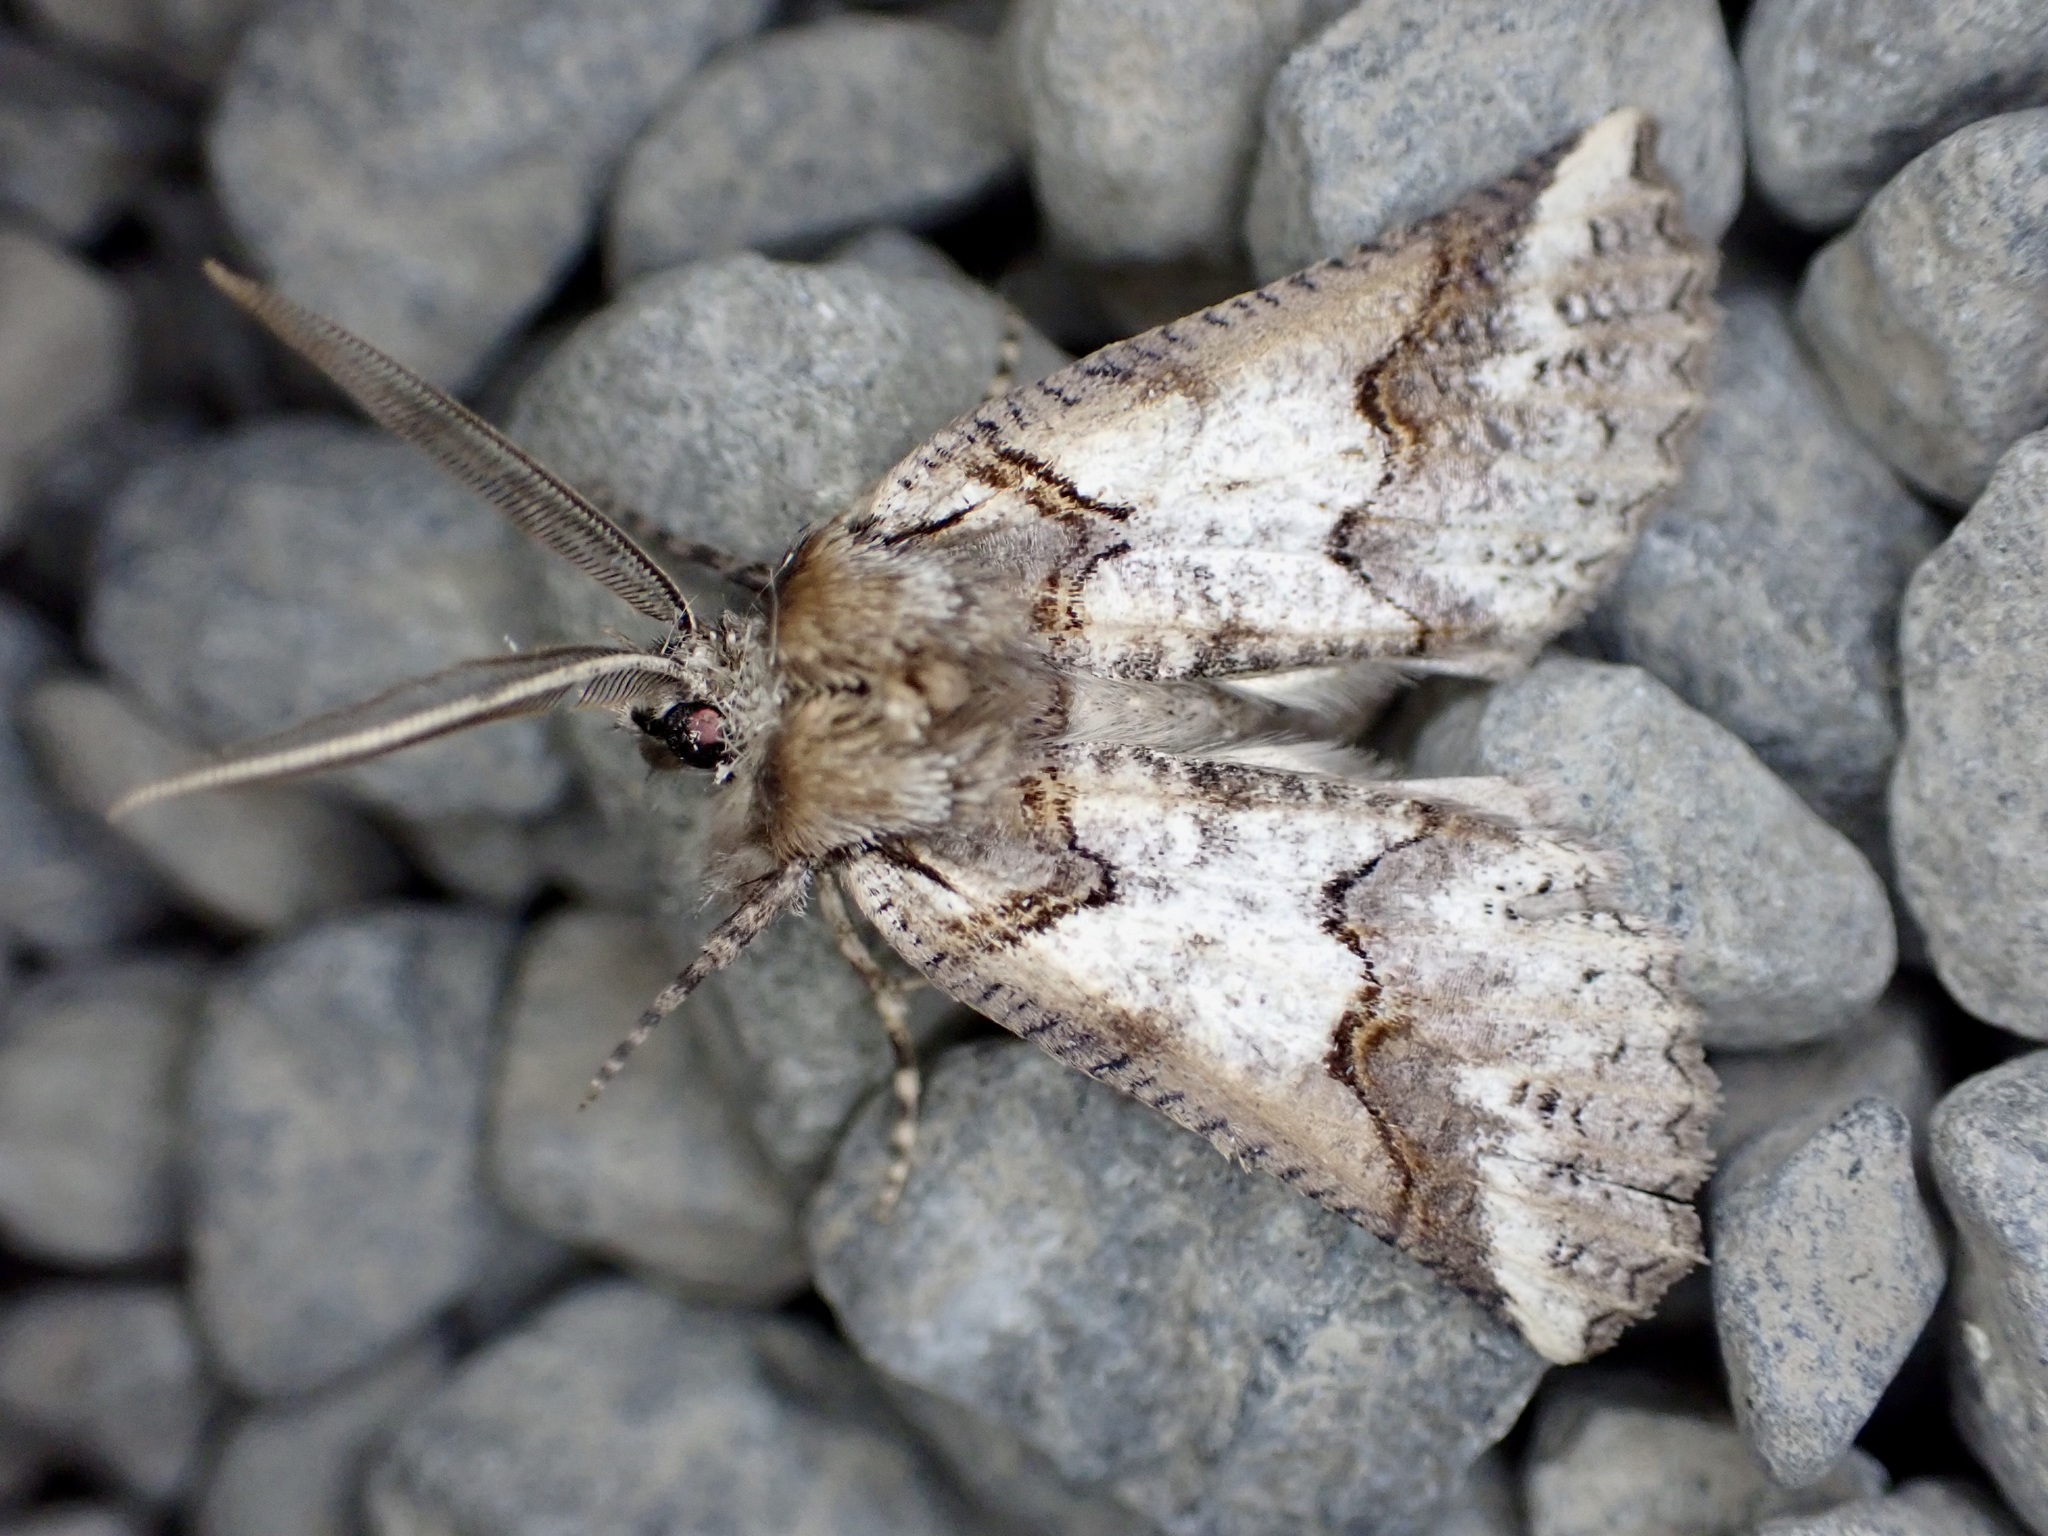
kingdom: Animalia
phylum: Arthropoda
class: Insecta
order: Lepidoptera
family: Geometridae
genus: Declana
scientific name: Declana
